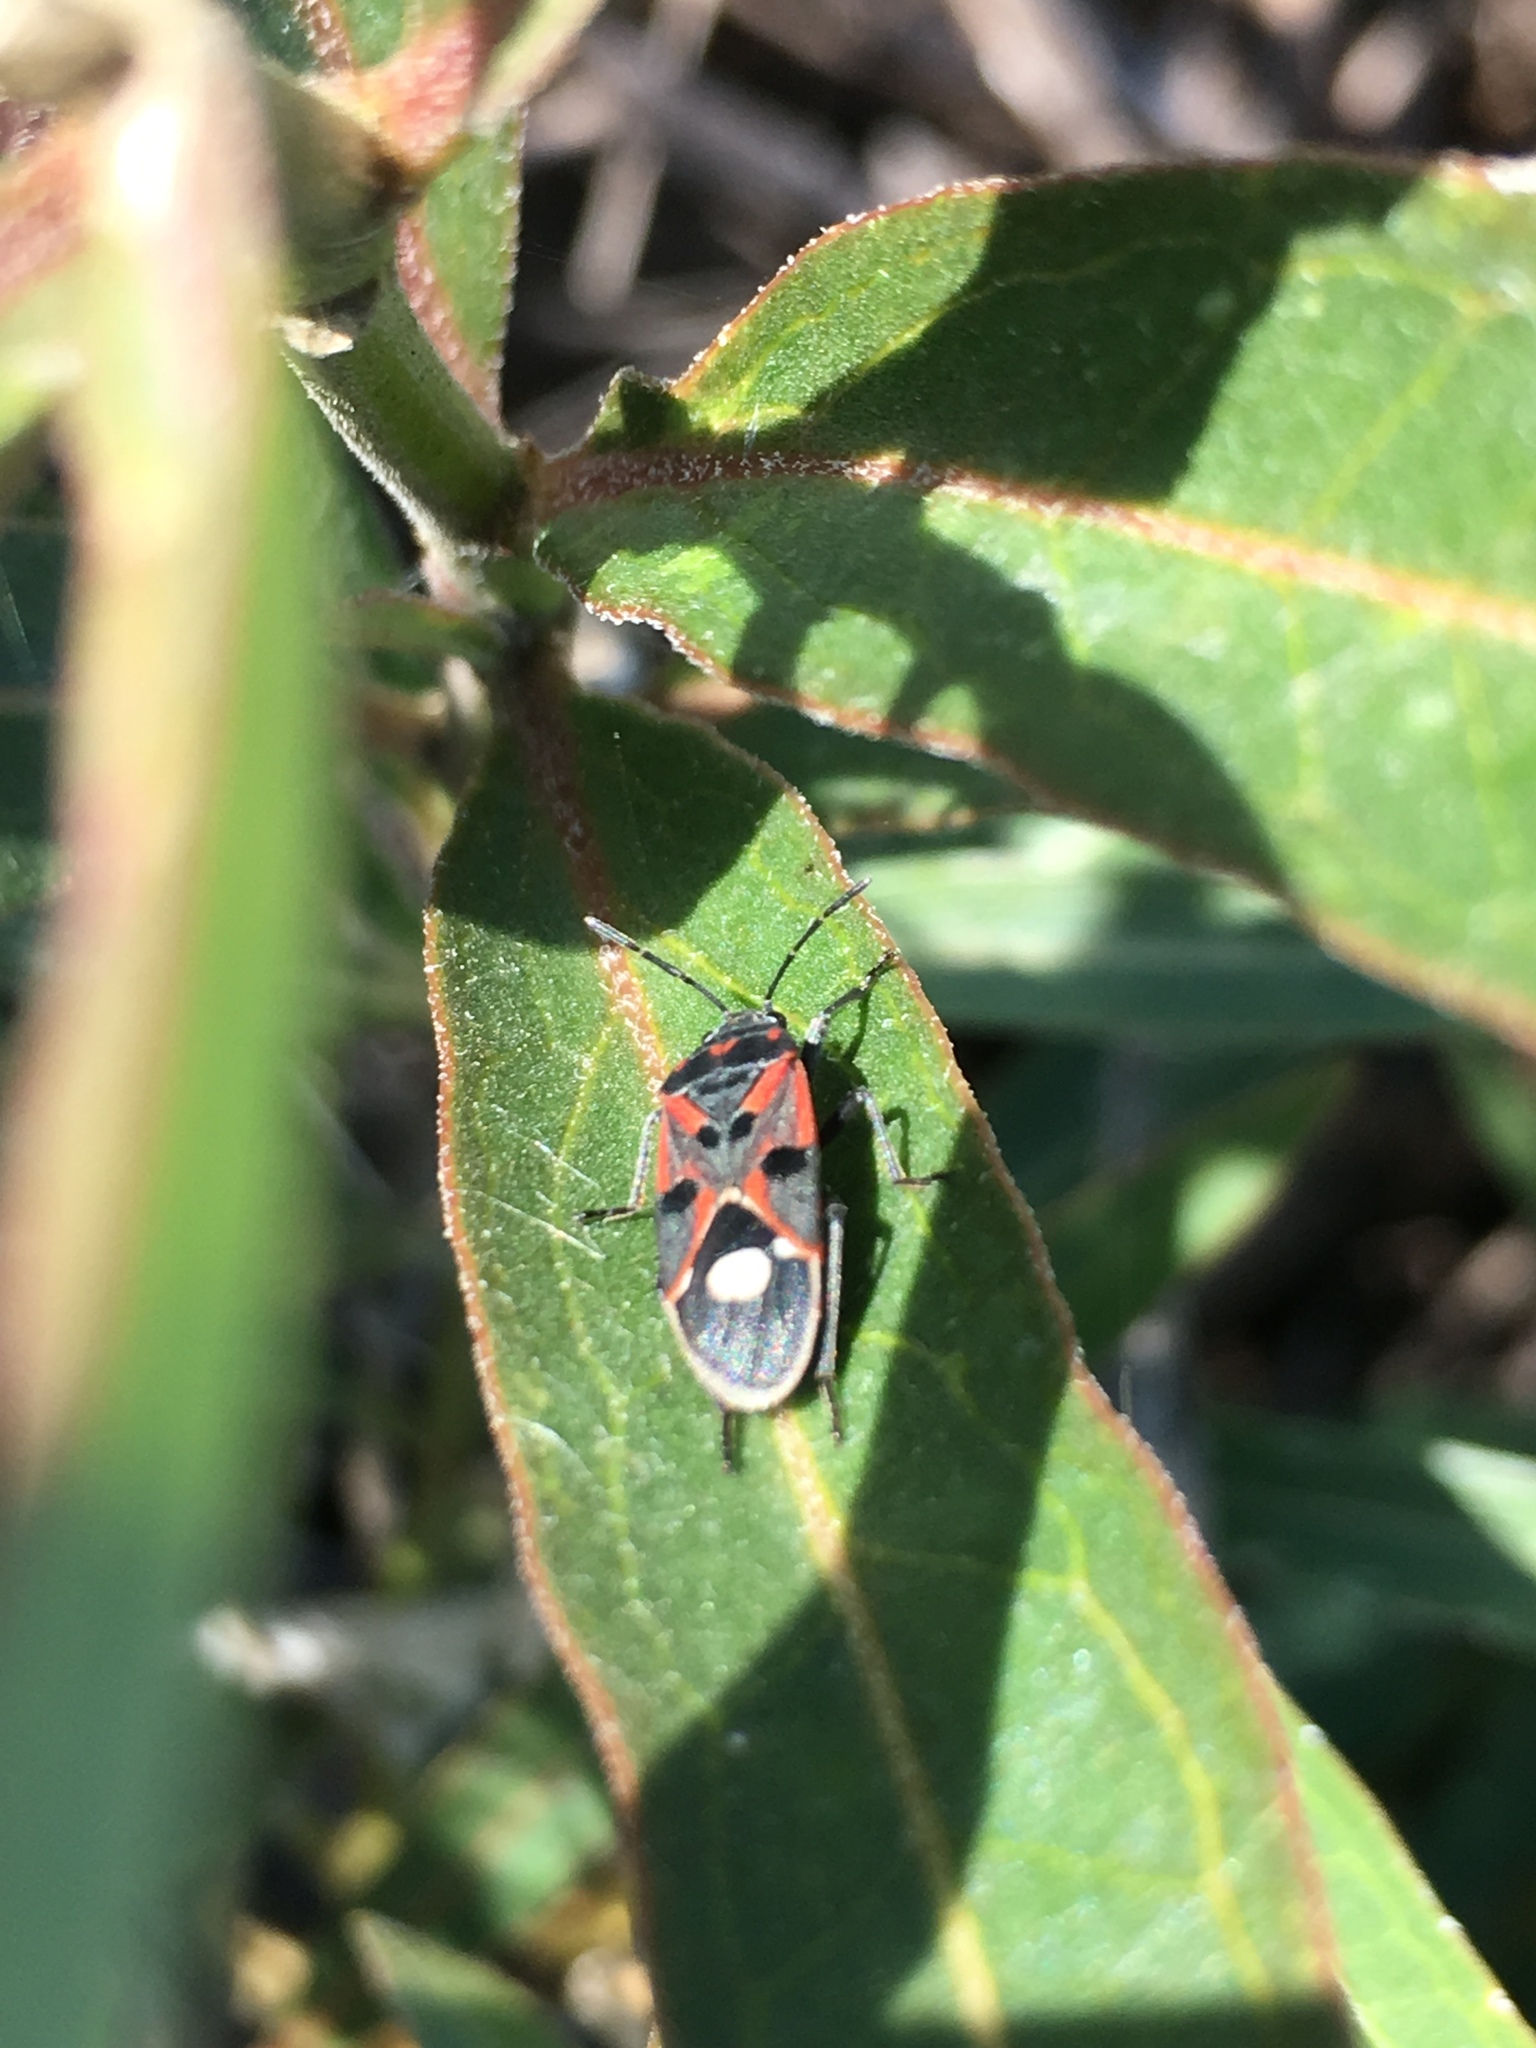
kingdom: Animalia
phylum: Arthropoda
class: Insecta
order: Hemiptera
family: Lygaeidae
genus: Lygaeus
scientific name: Lygaeus alboornatus
